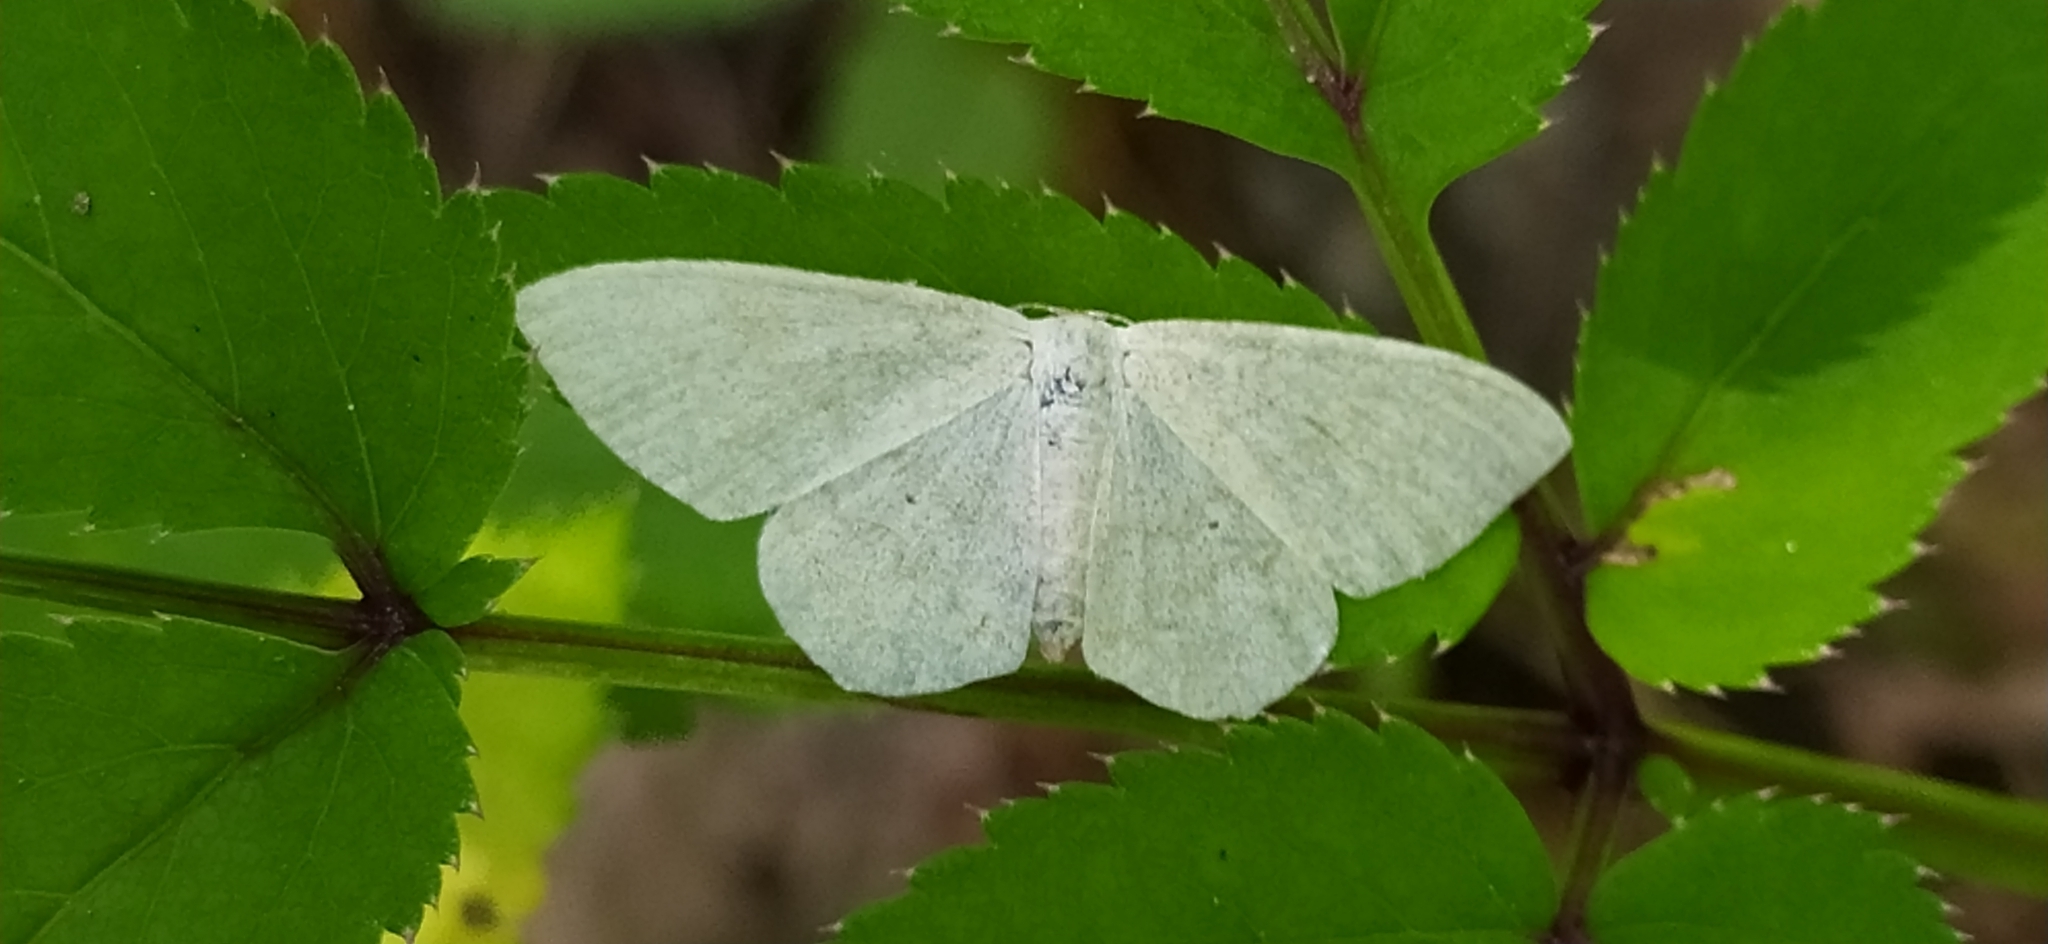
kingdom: Animalia
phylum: Arthropoda
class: Insecta
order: Lepidoptera
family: Geometridae
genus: Scopula
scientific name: Scopula floslactata
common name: Cream wave
